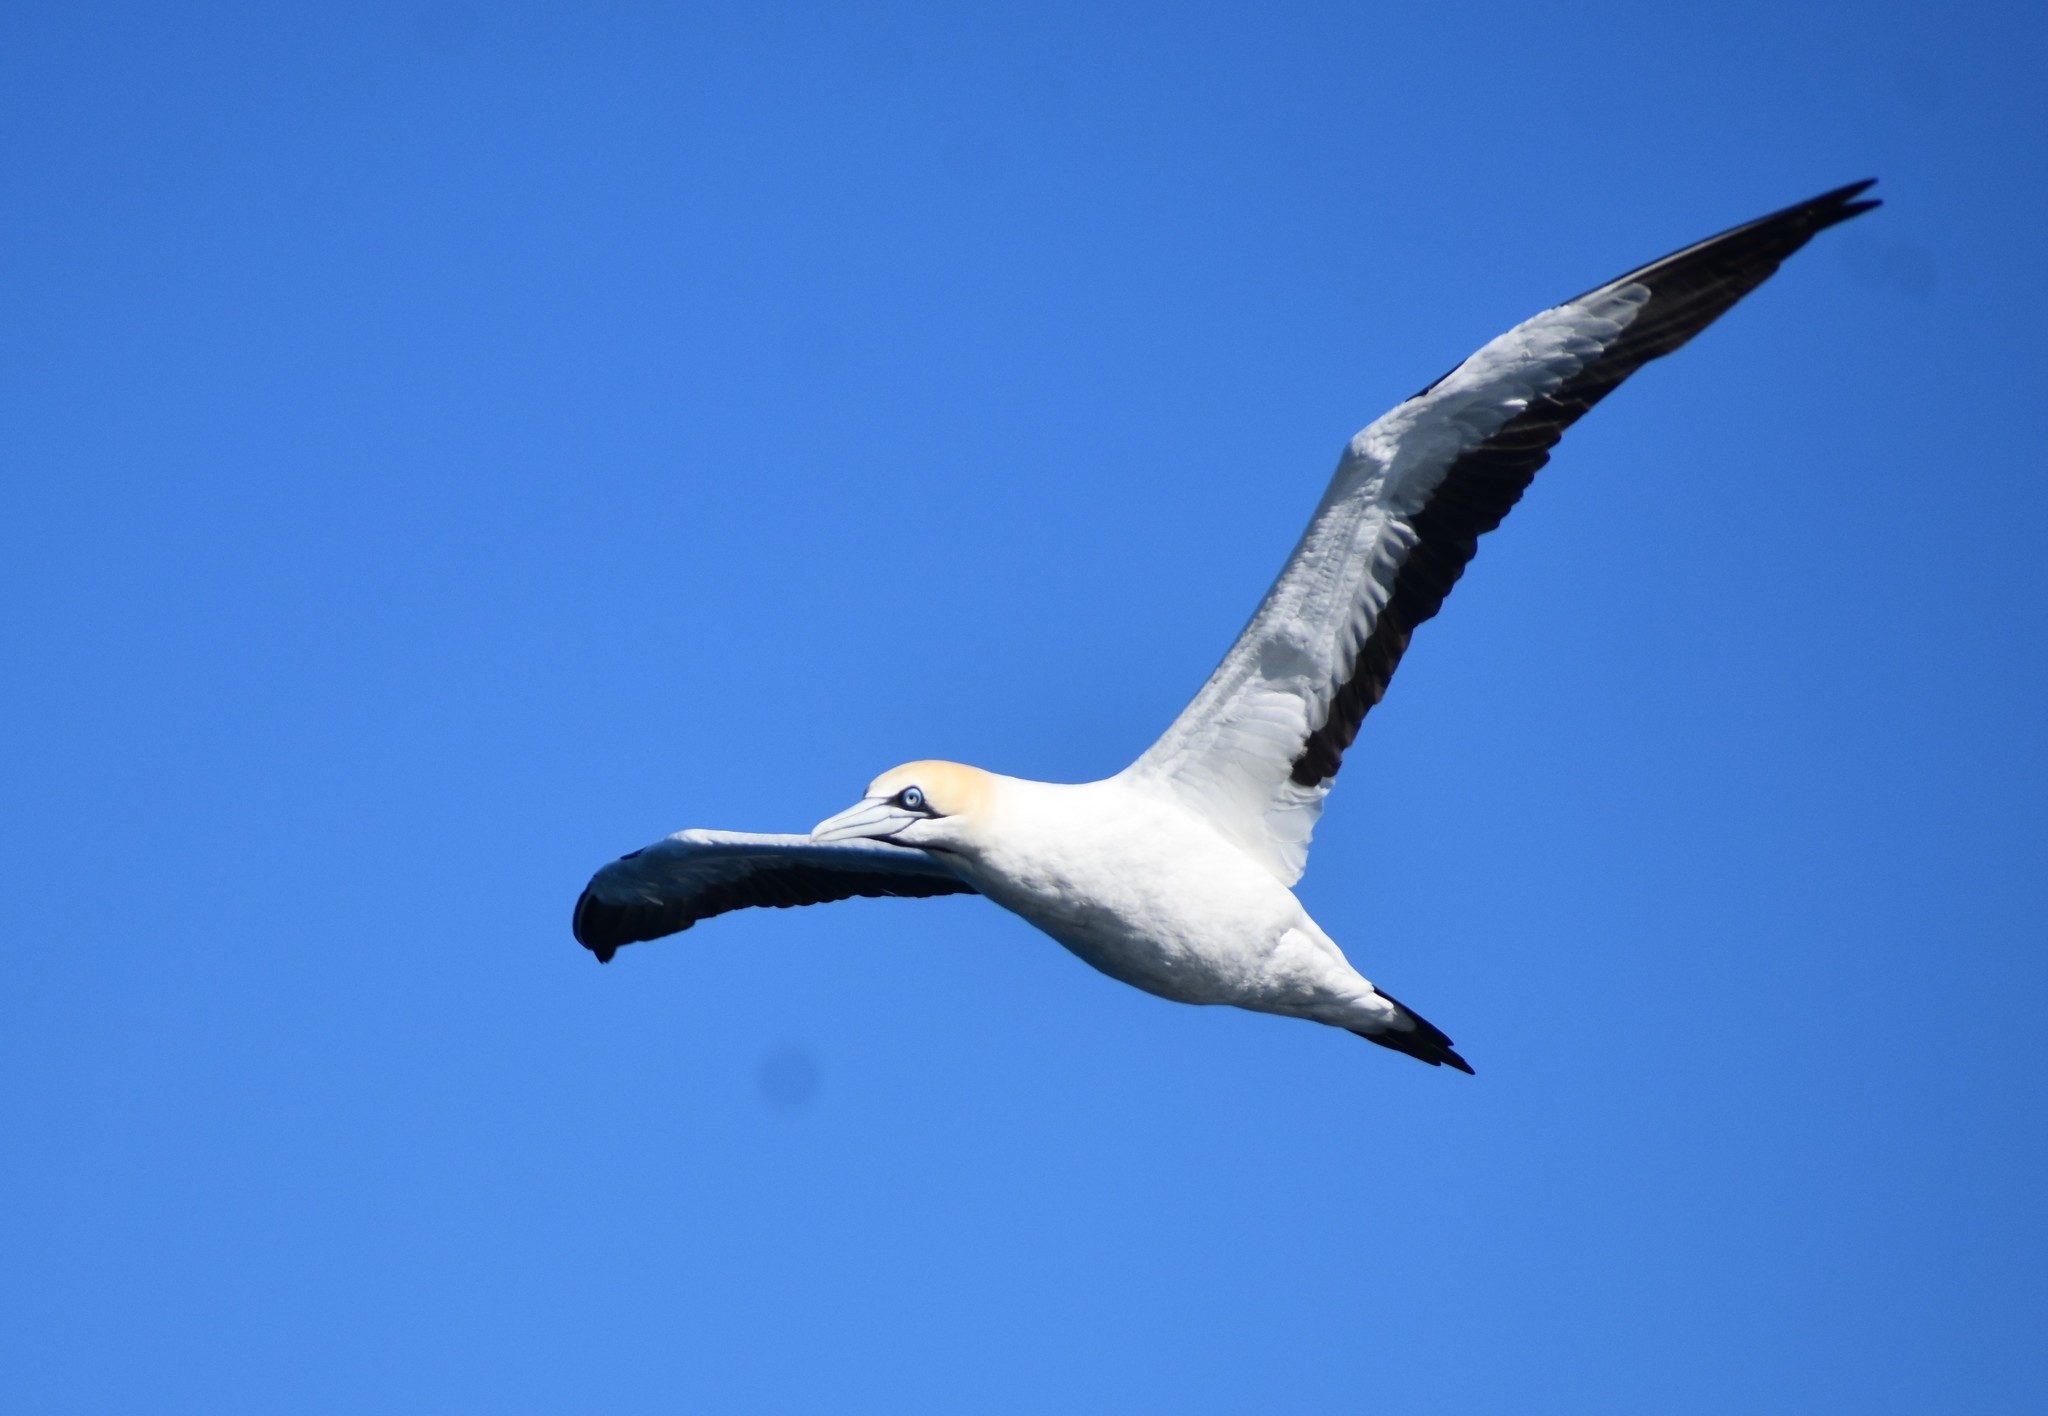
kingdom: Animalia
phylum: Chordata
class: Aves
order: Suliformes
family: Sulidae
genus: Morus
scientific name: Morus capensis
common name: Cape gannet
